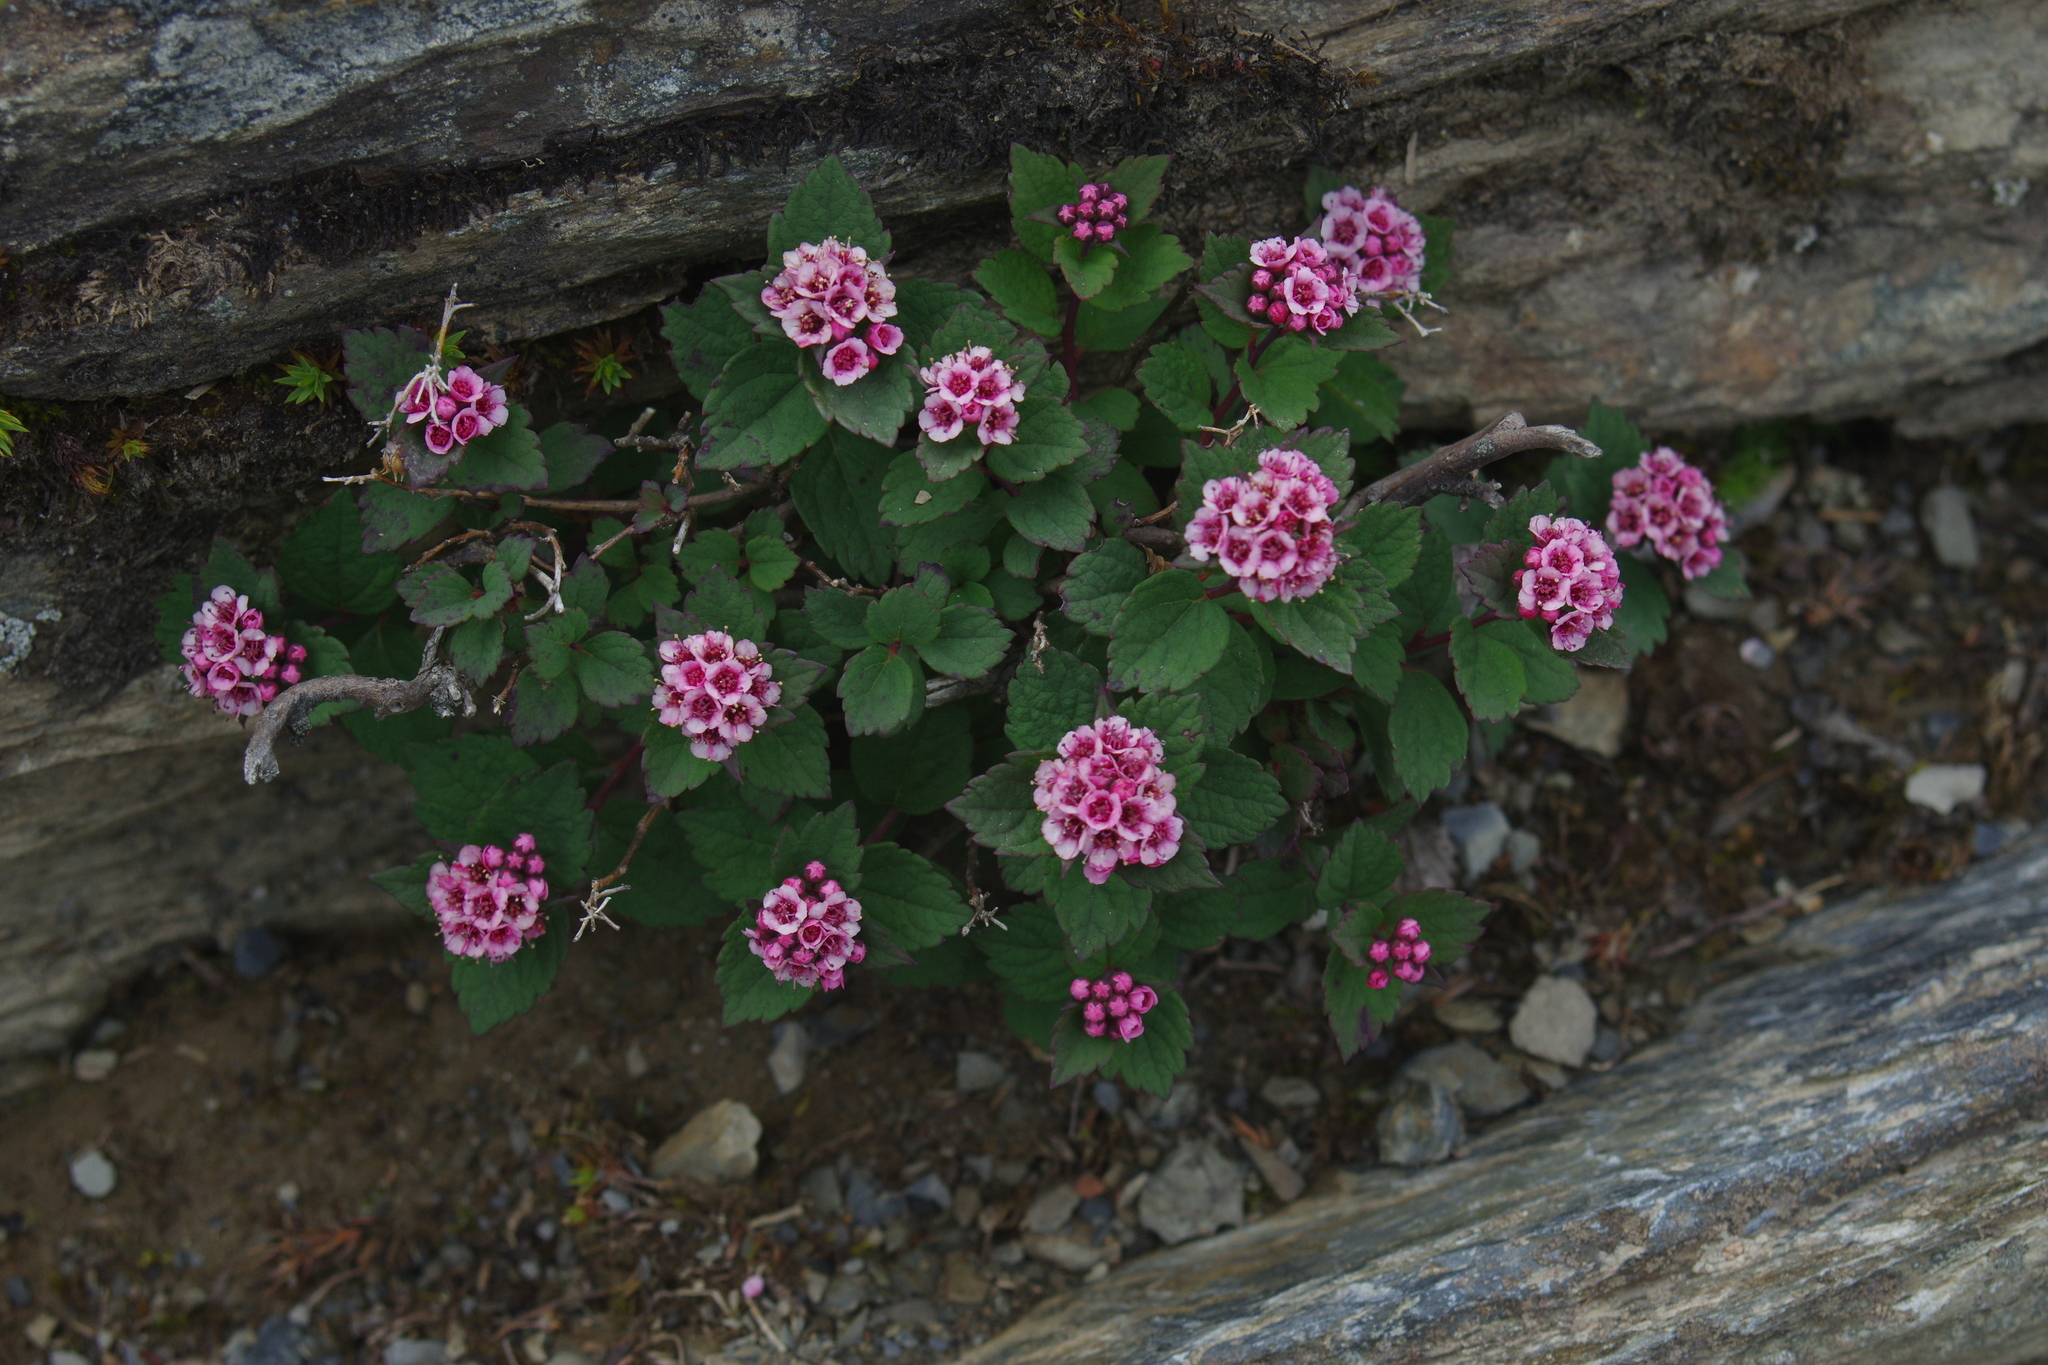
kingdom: Plantae
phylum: Tracheophyta
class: Magnoliopsida
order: Rosales
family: Rosaceae
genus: Spiraea
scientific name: Spiraea morrisonicola
